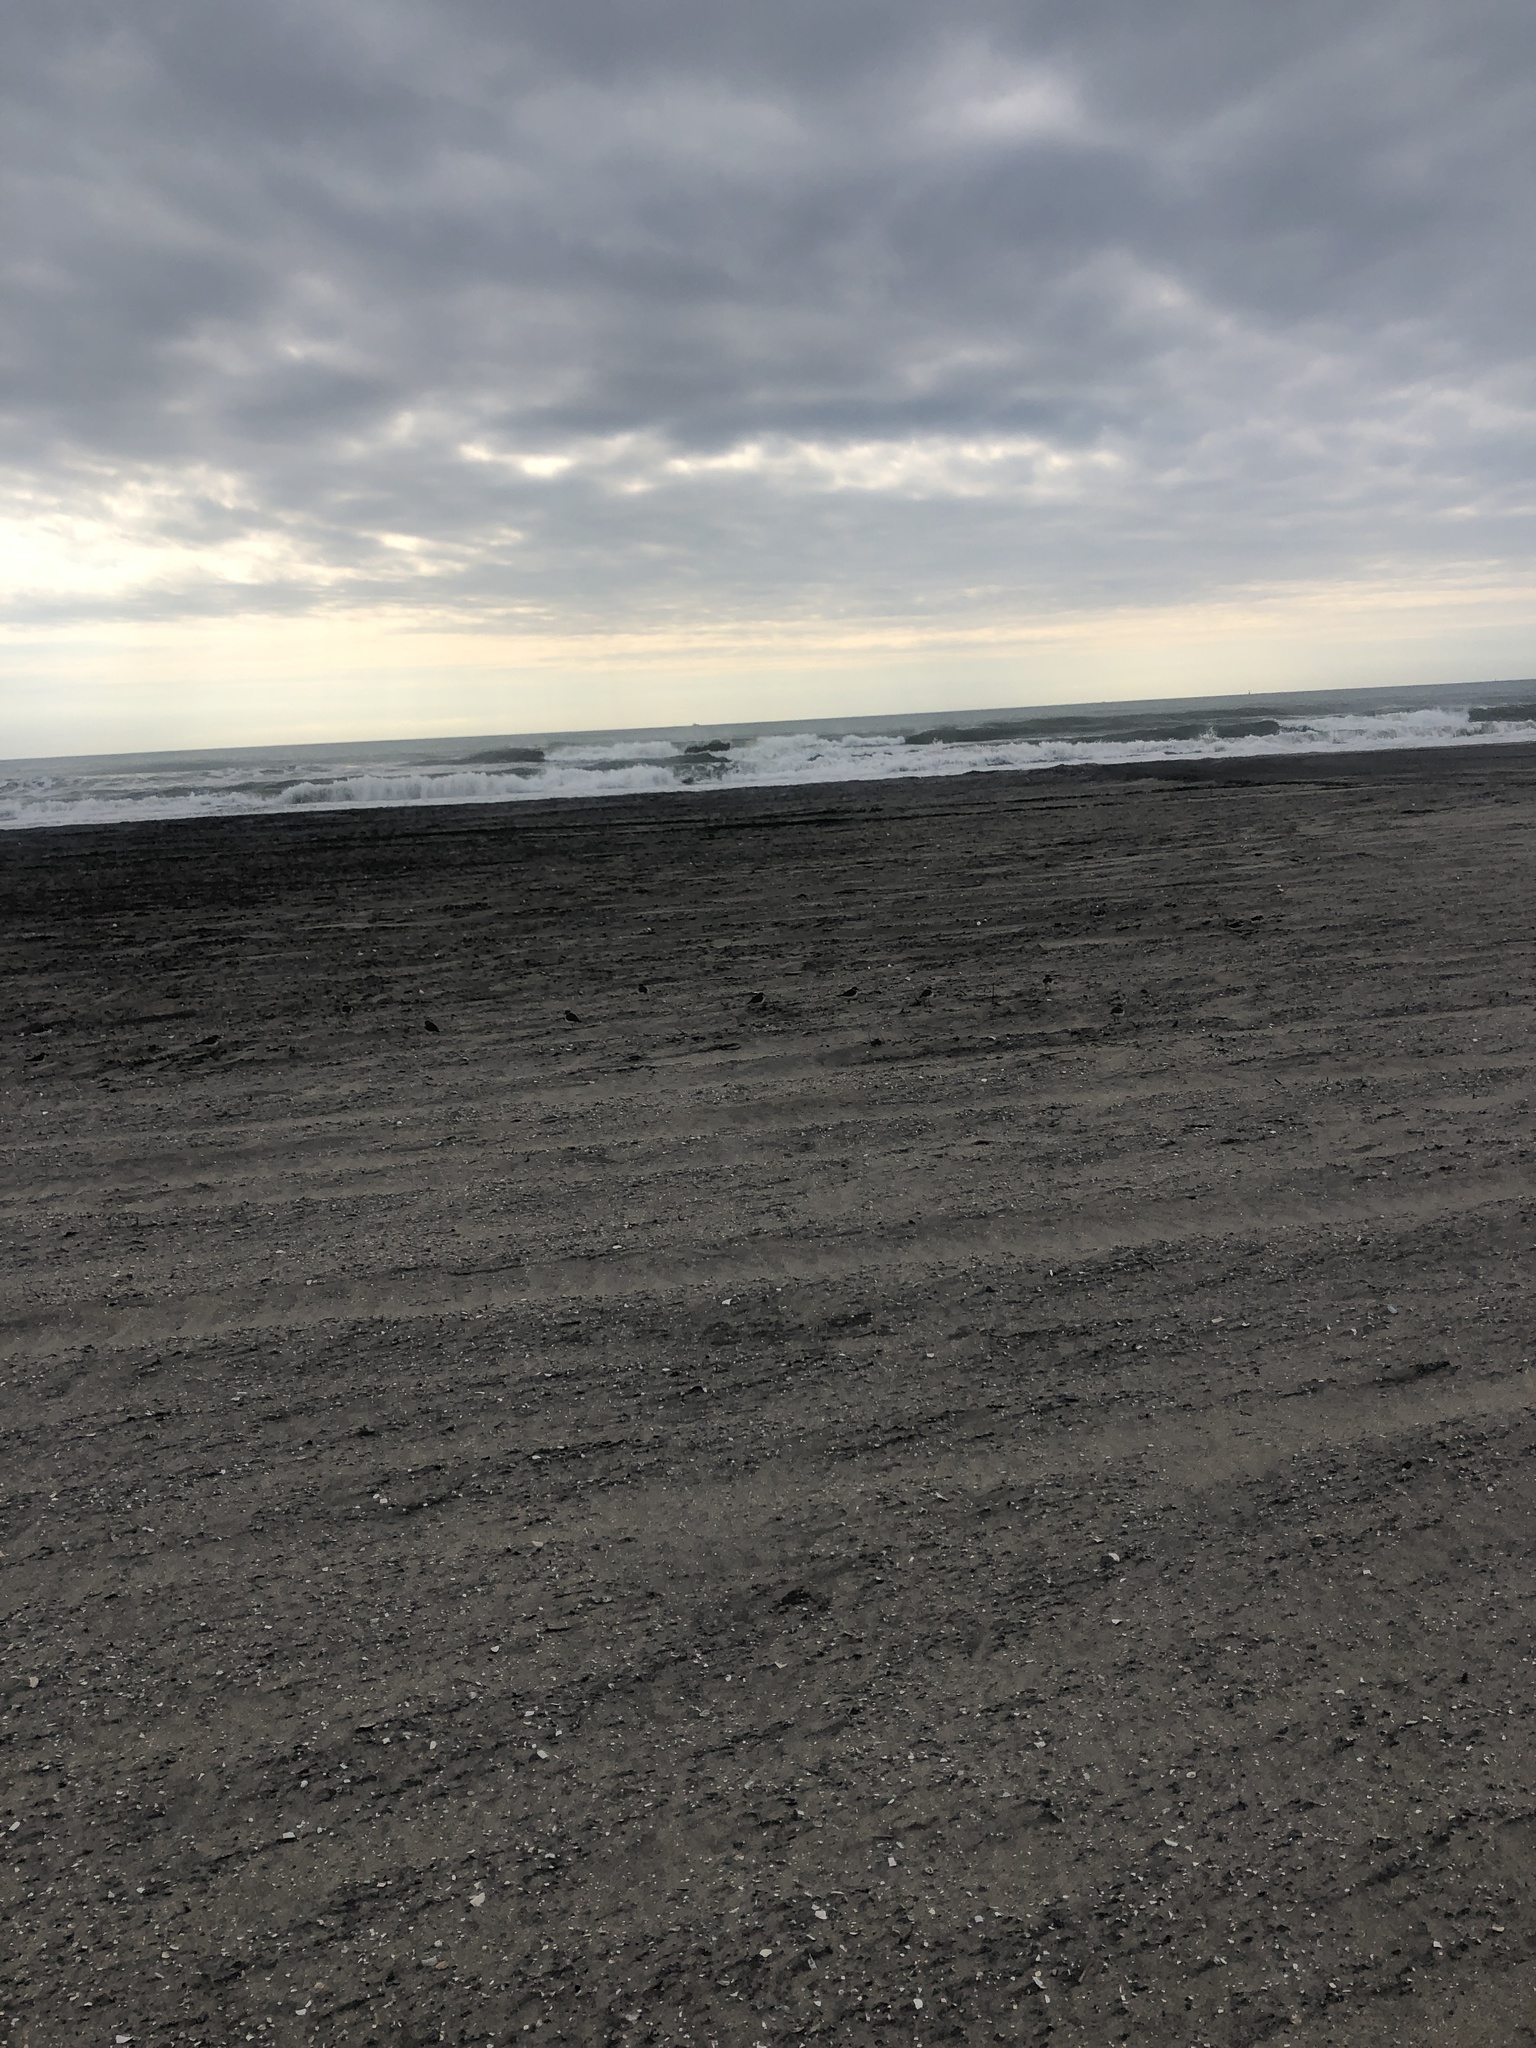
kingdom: Animalia
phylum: Chordata
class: Aves
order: Charadriiformes
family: Charadriidae
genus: Charadrius
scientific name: Charadrius semipalmatus
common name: Semipalmated plover
